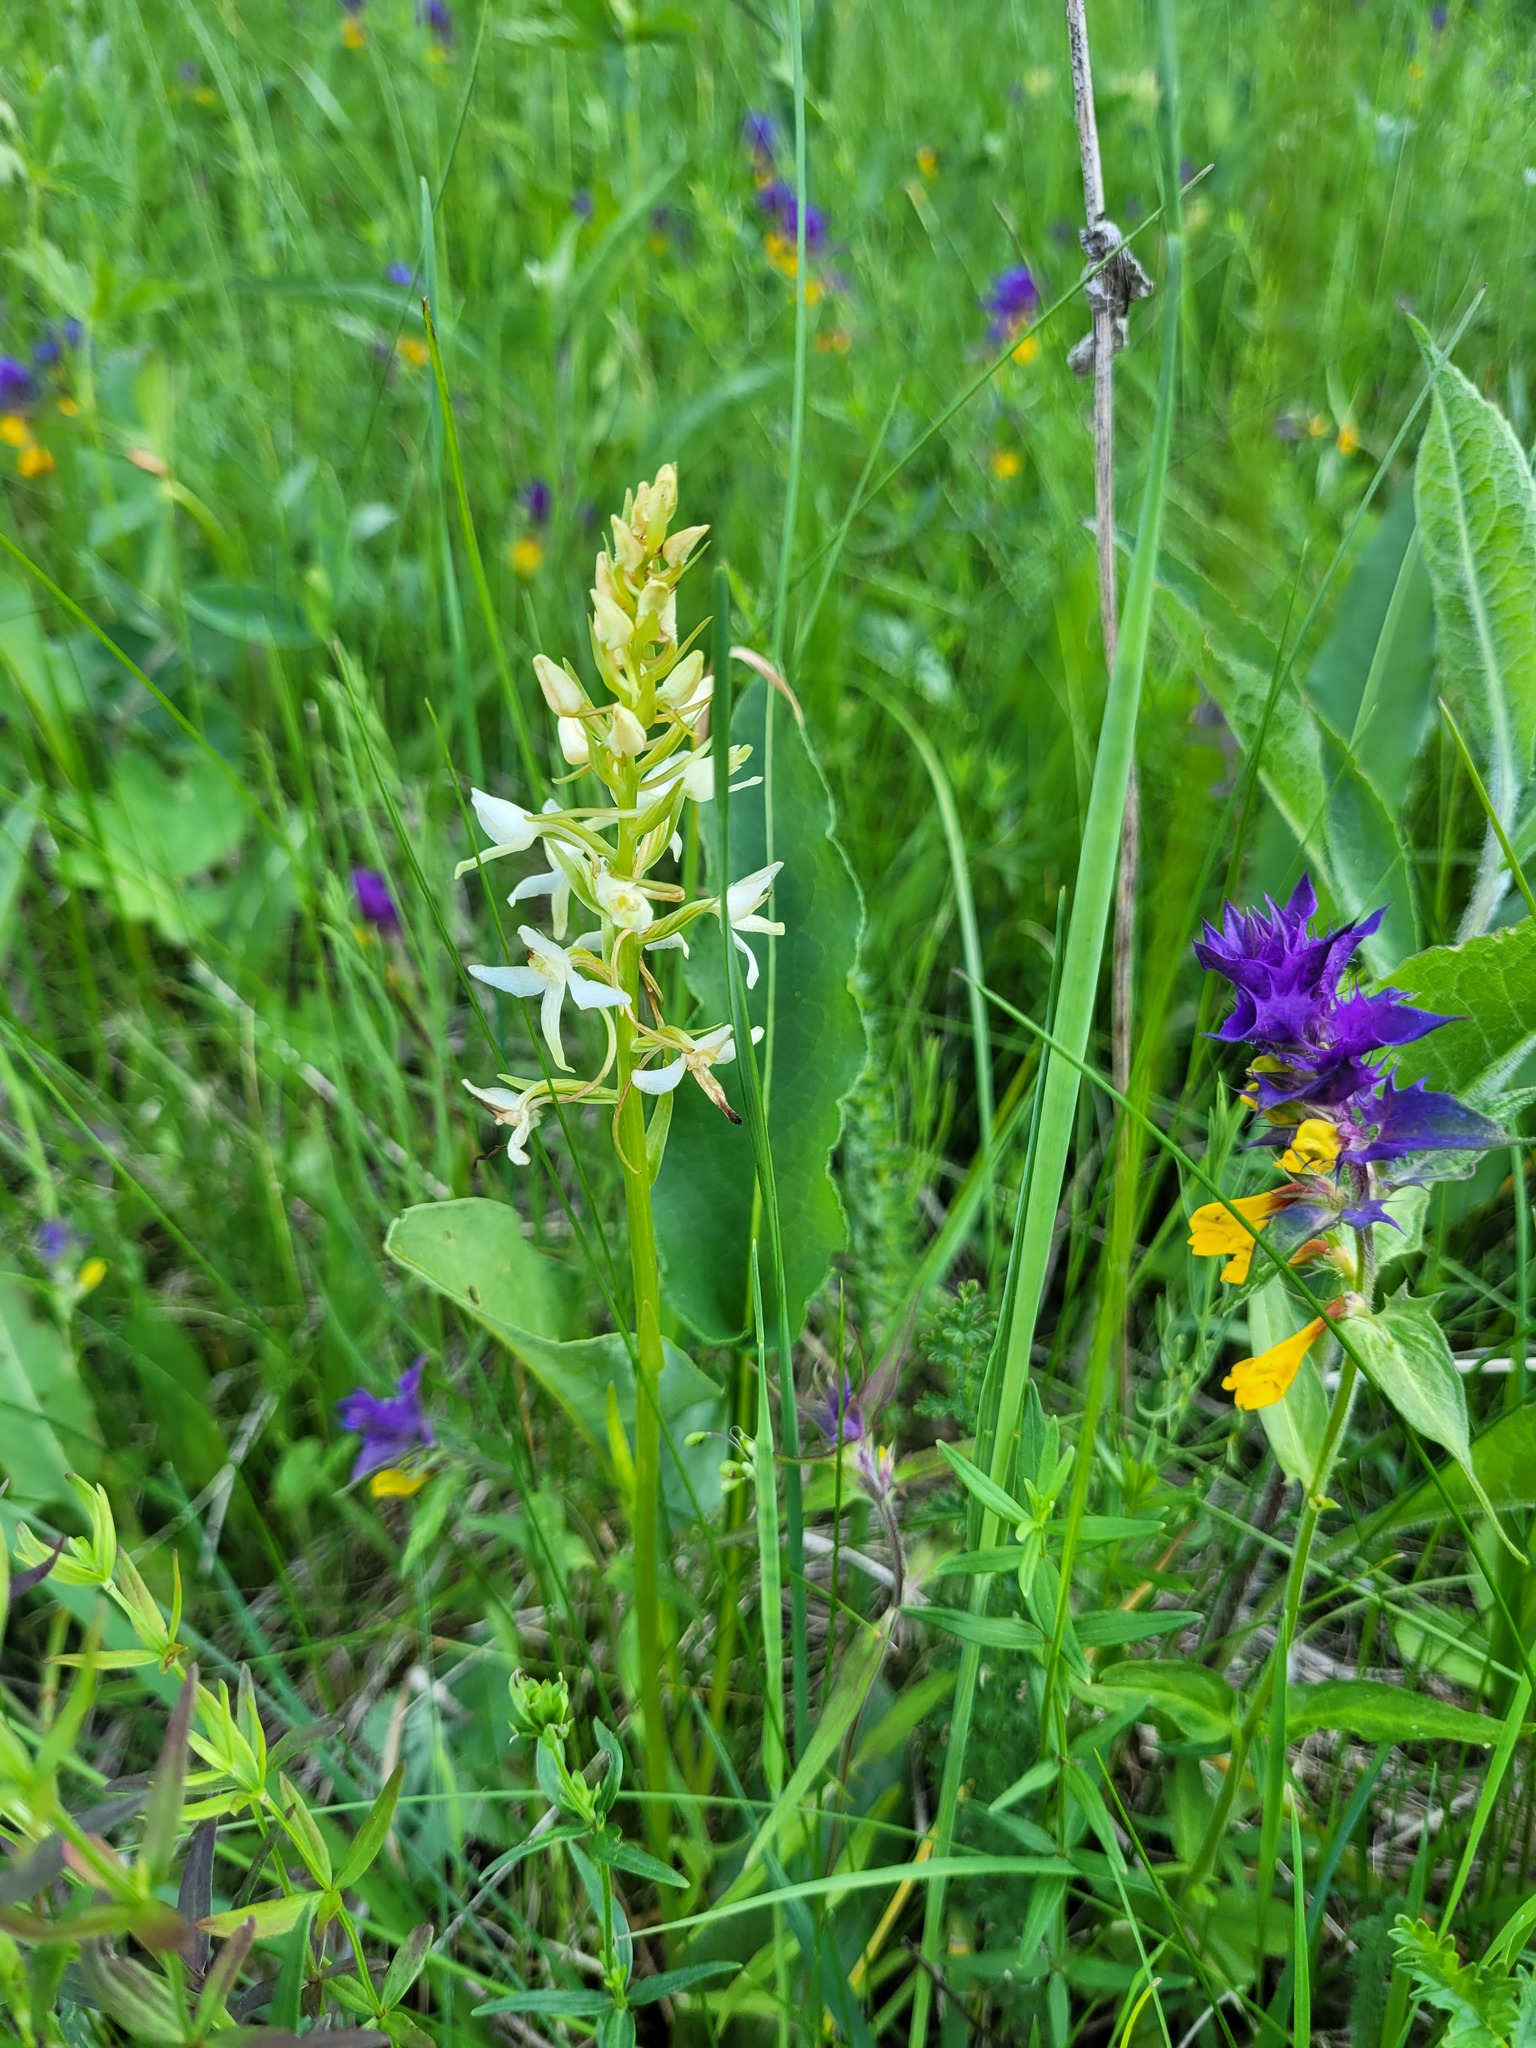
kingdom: Plantae
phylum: Tracheophyta
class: Liliopsida
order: Asparagales
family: Orchidaceae
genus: Platanthera
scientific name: Platanthera bifolia
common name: Lesser butterfly-orchid
